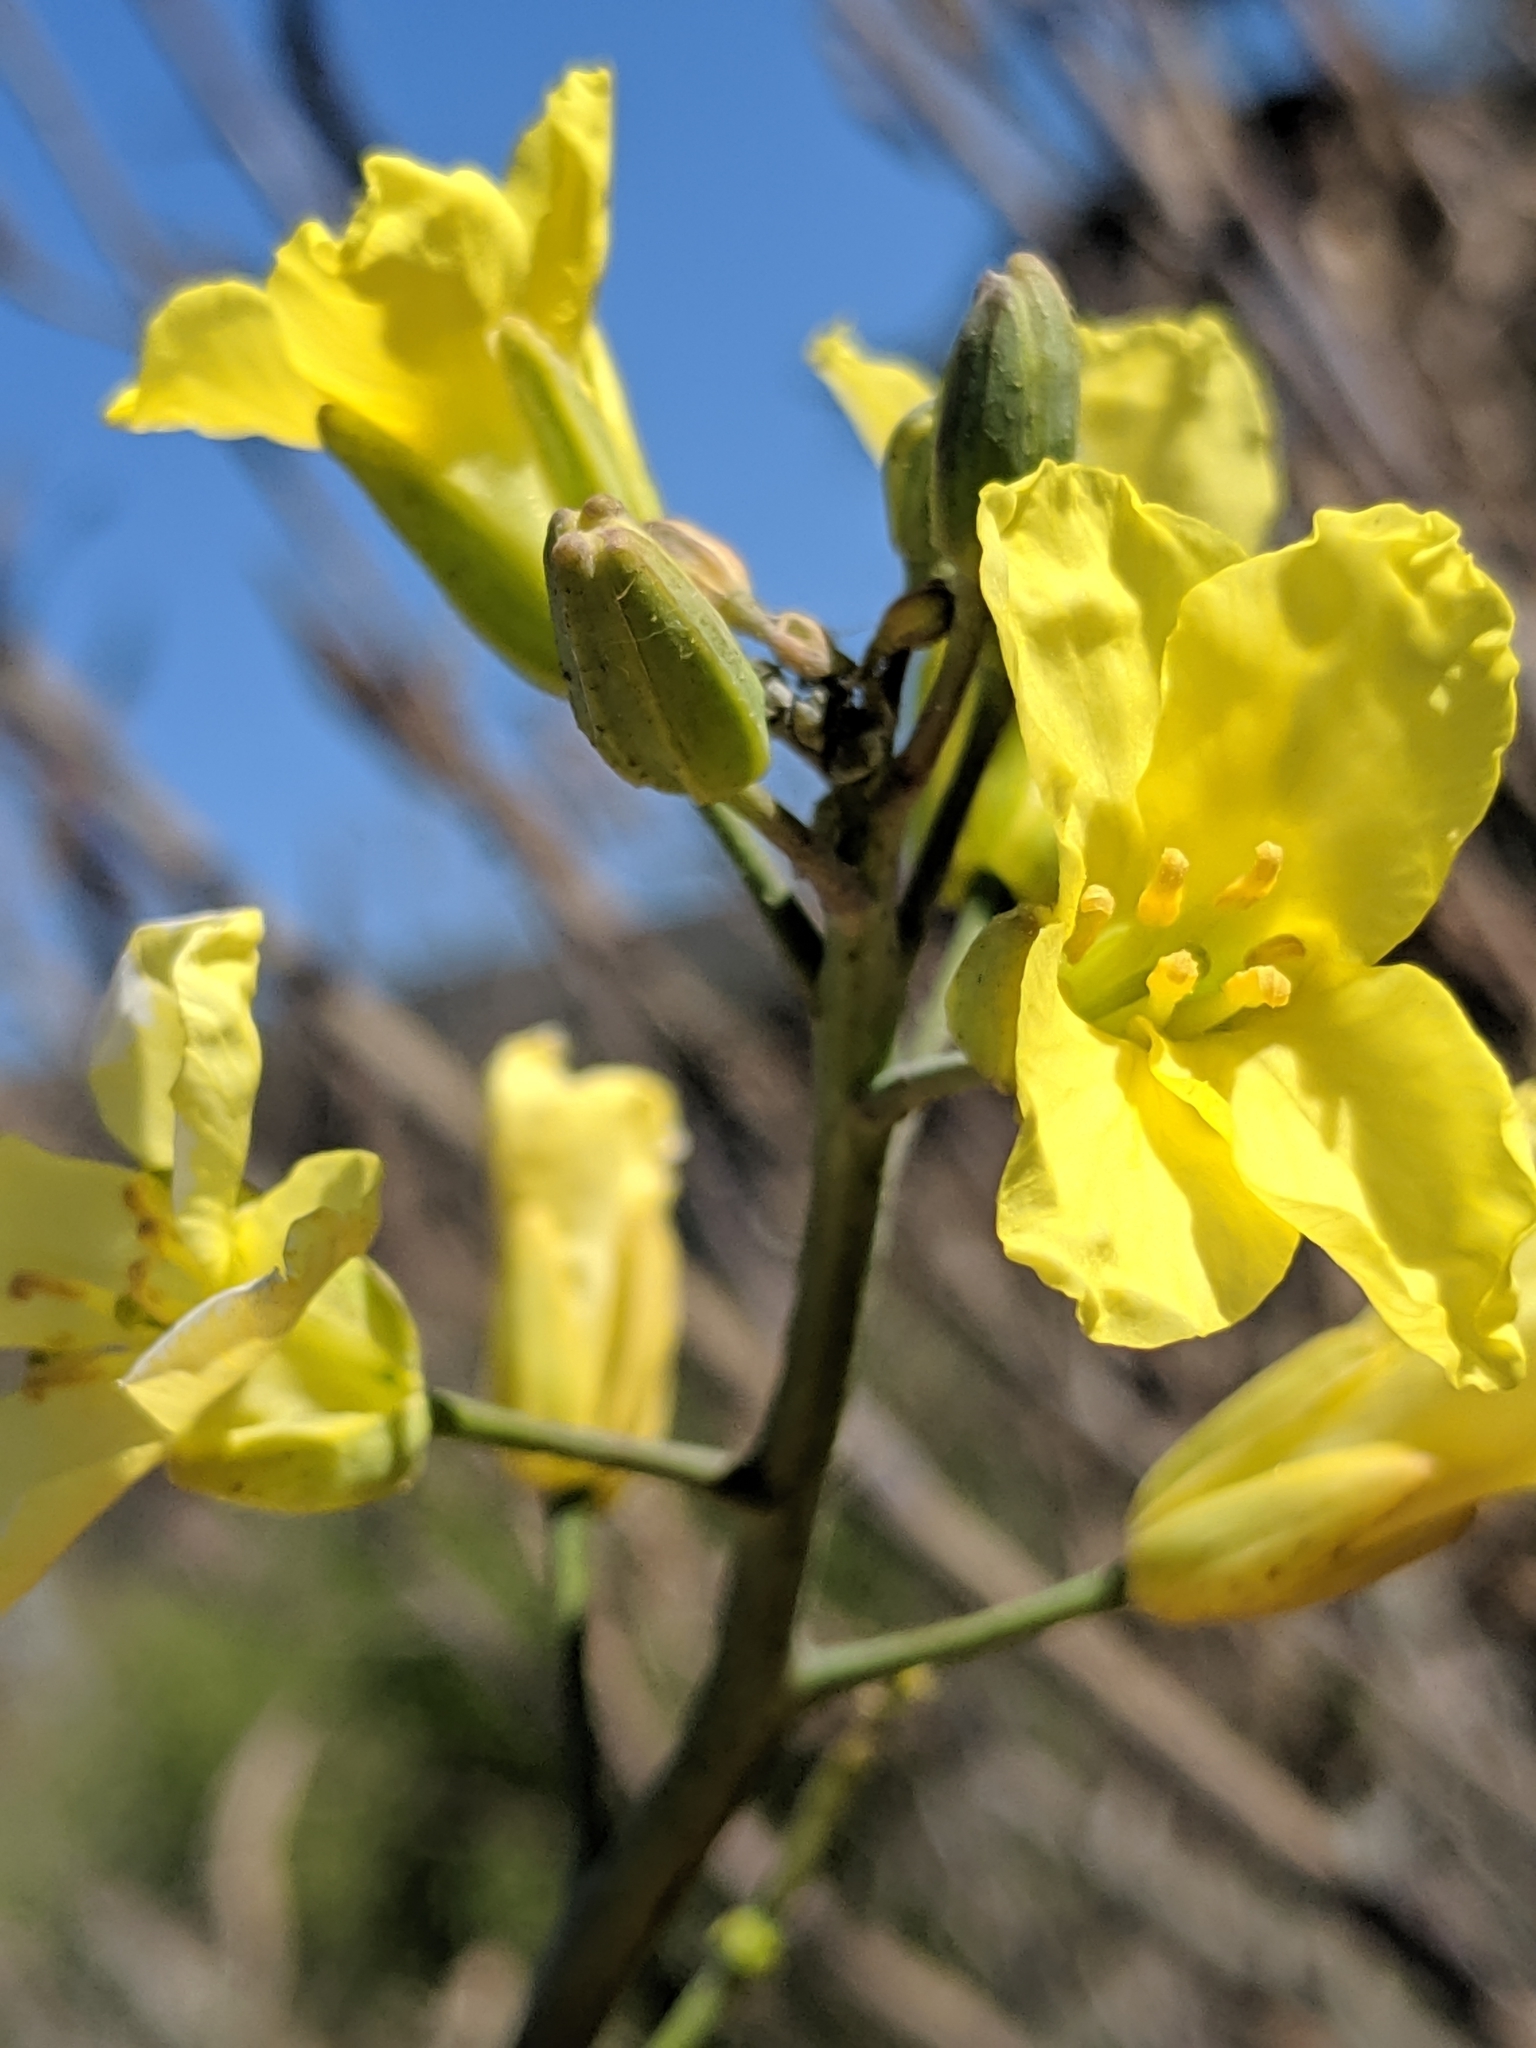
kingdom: Plantae
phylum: Tracheophyta
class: Magnoliopsida
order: Brassicales
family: Brassicaceae
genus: Brassica
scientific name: Brassica oleracea
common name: Cabbage
